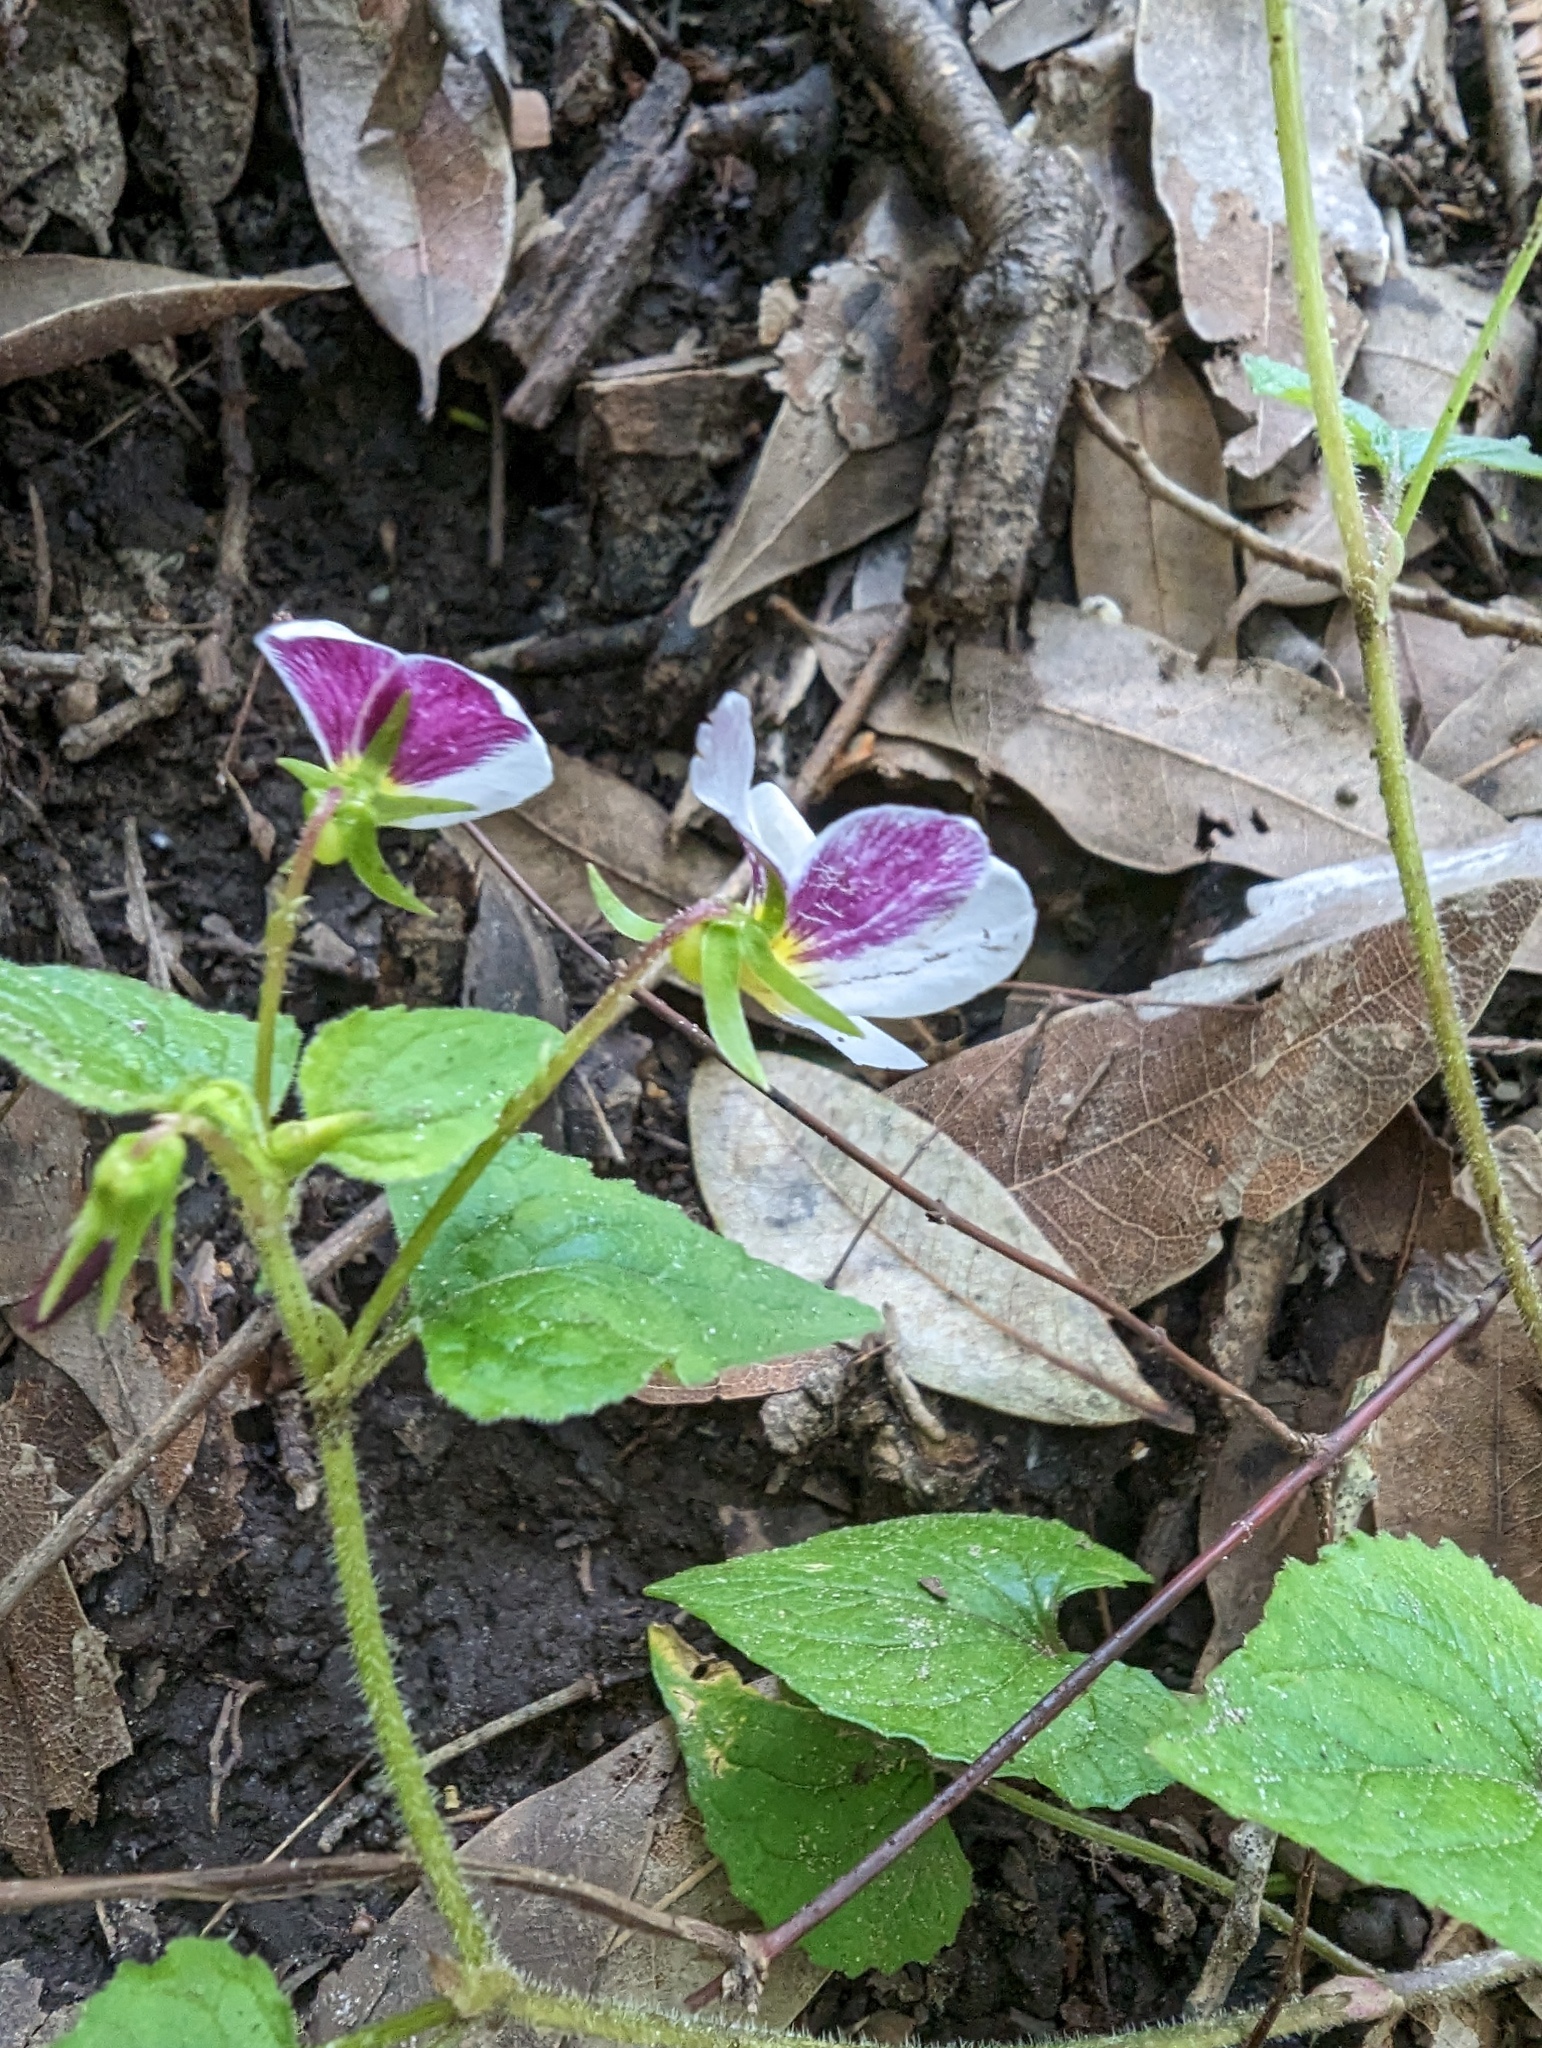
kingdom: Plantae
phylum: Tracheophyta
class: Magnoliopsida
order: Malpighiales
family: Violaceae
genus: Viola
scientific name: Viola ocellata
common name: Western heart's ease
